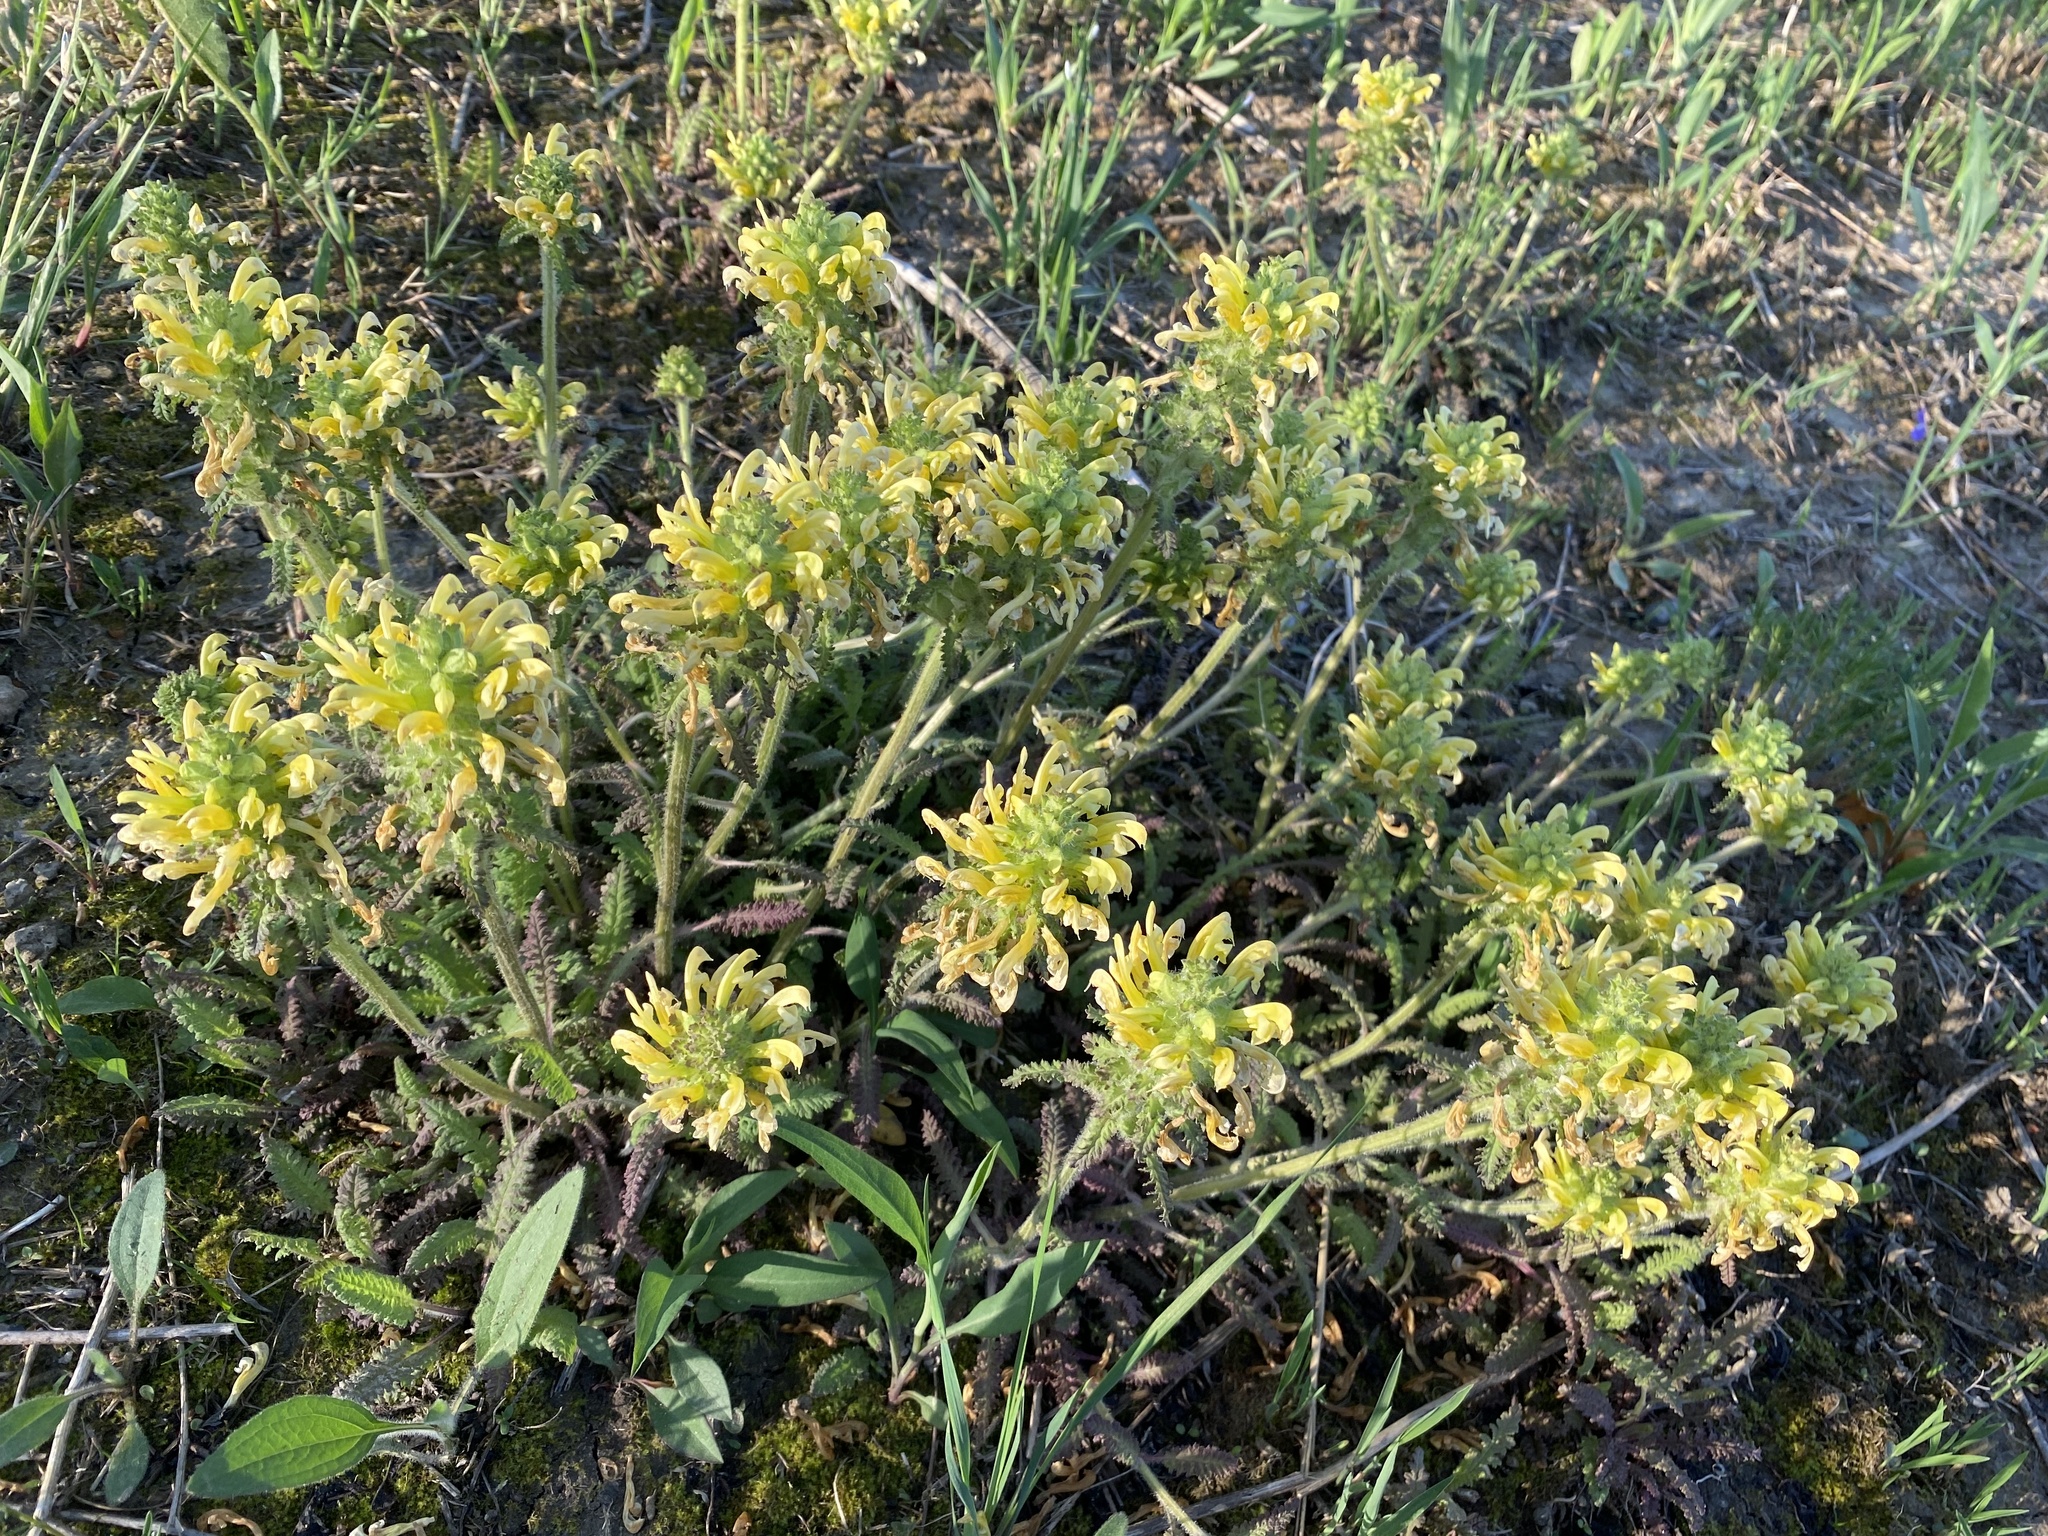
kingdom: Plantae
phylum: Tracheophyta
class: Magnoliopsida
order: Lamiales
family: Orobanchaceae
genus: Pedicularis
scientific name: Pedicularis canadensis
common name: Early lousewort
